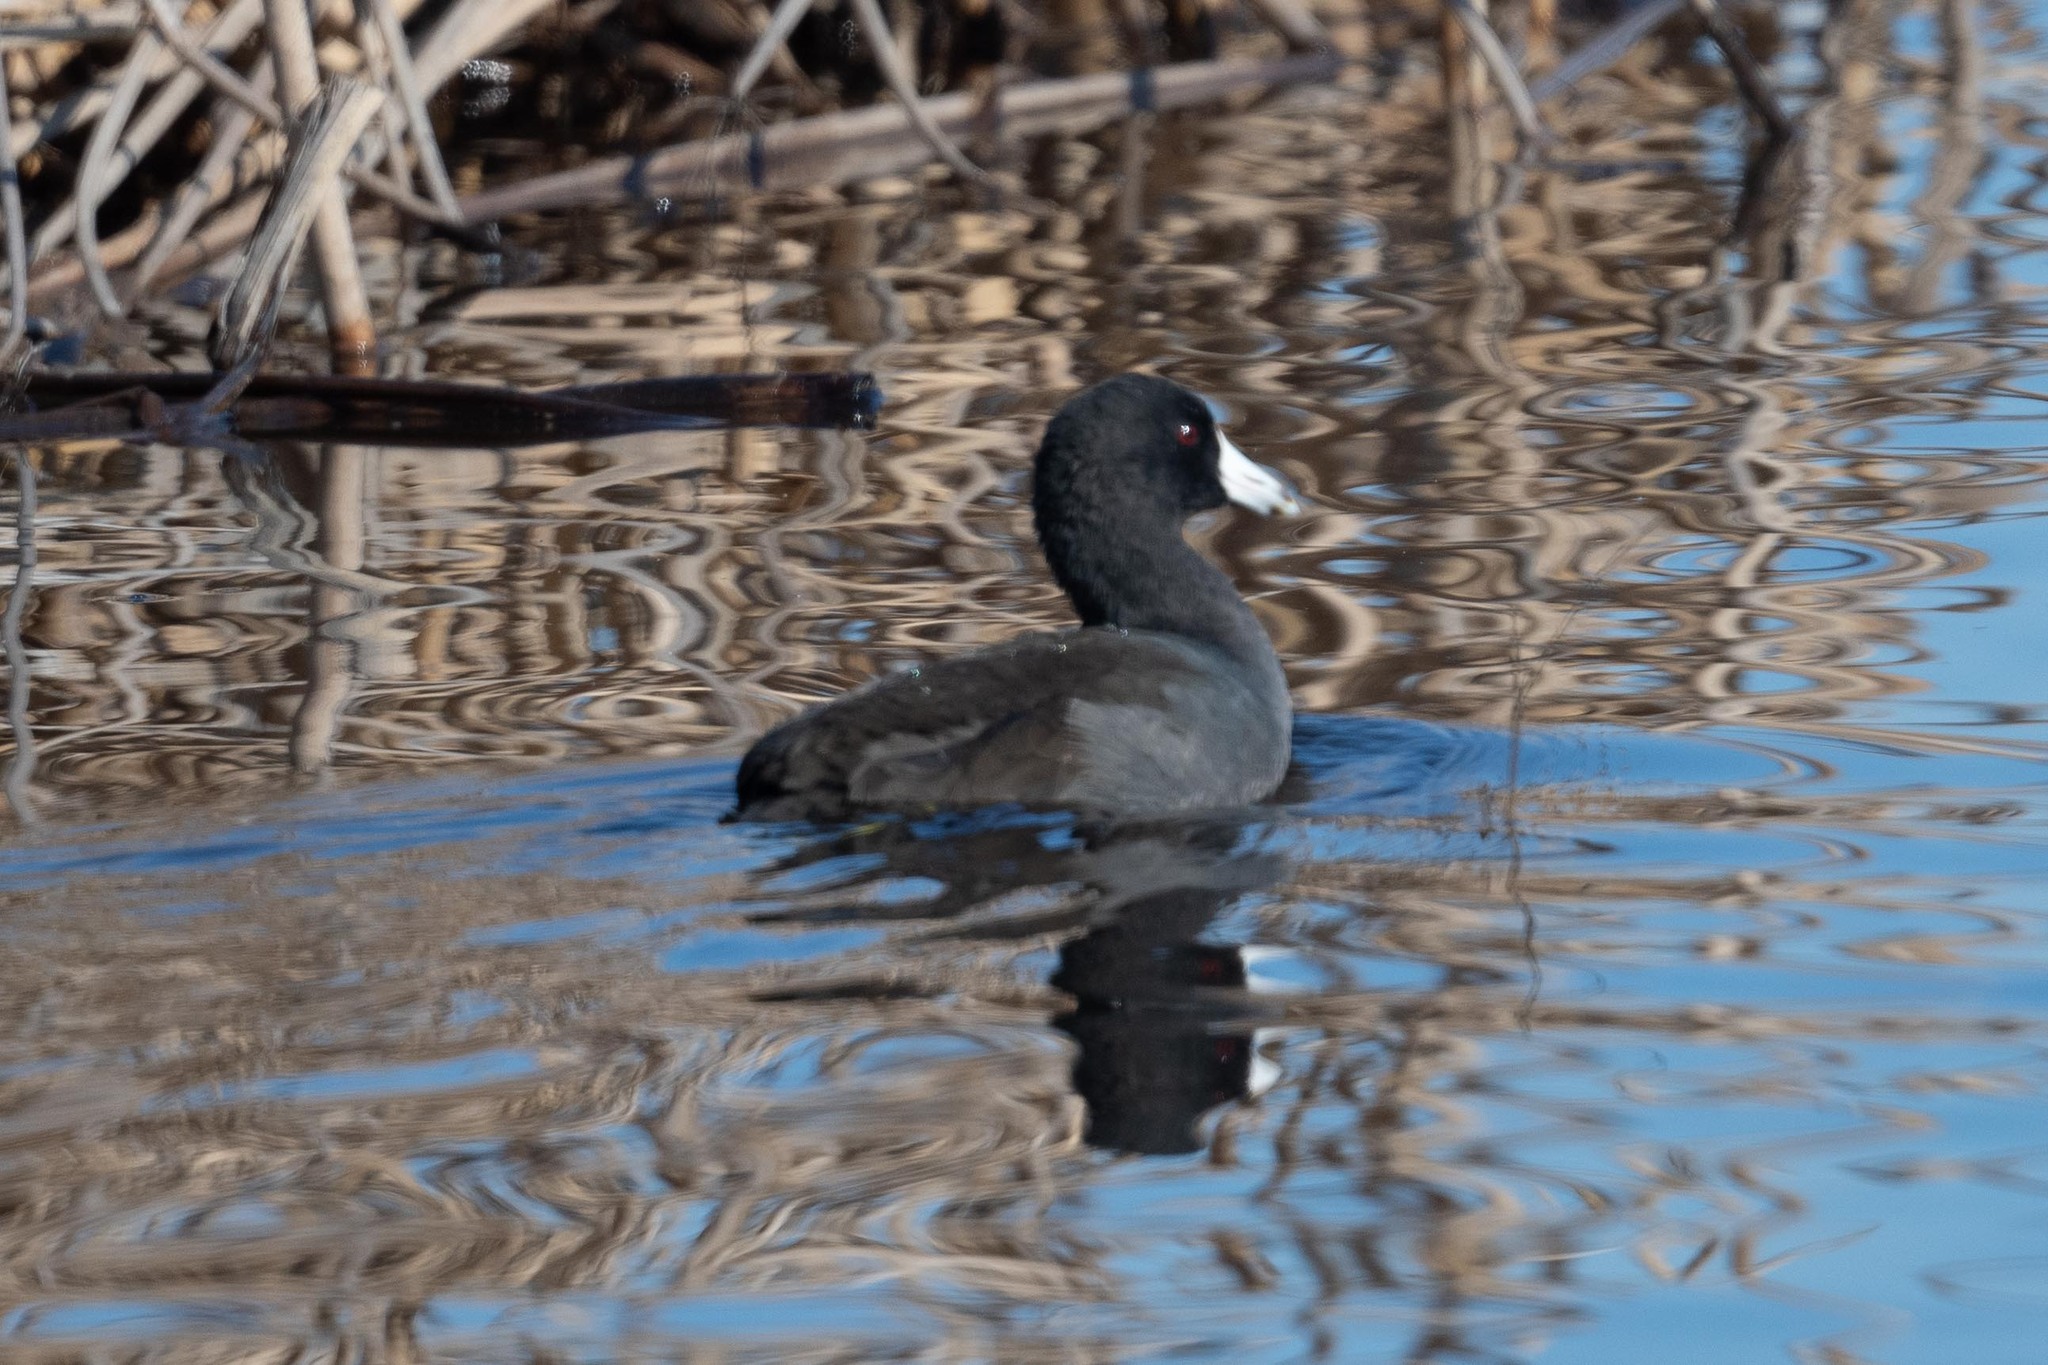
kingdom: Animalia
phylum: Chordata
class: Aves
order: Gruiformes
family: Rallidae
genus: Fulica
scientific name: Fulica americana
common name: American coot
